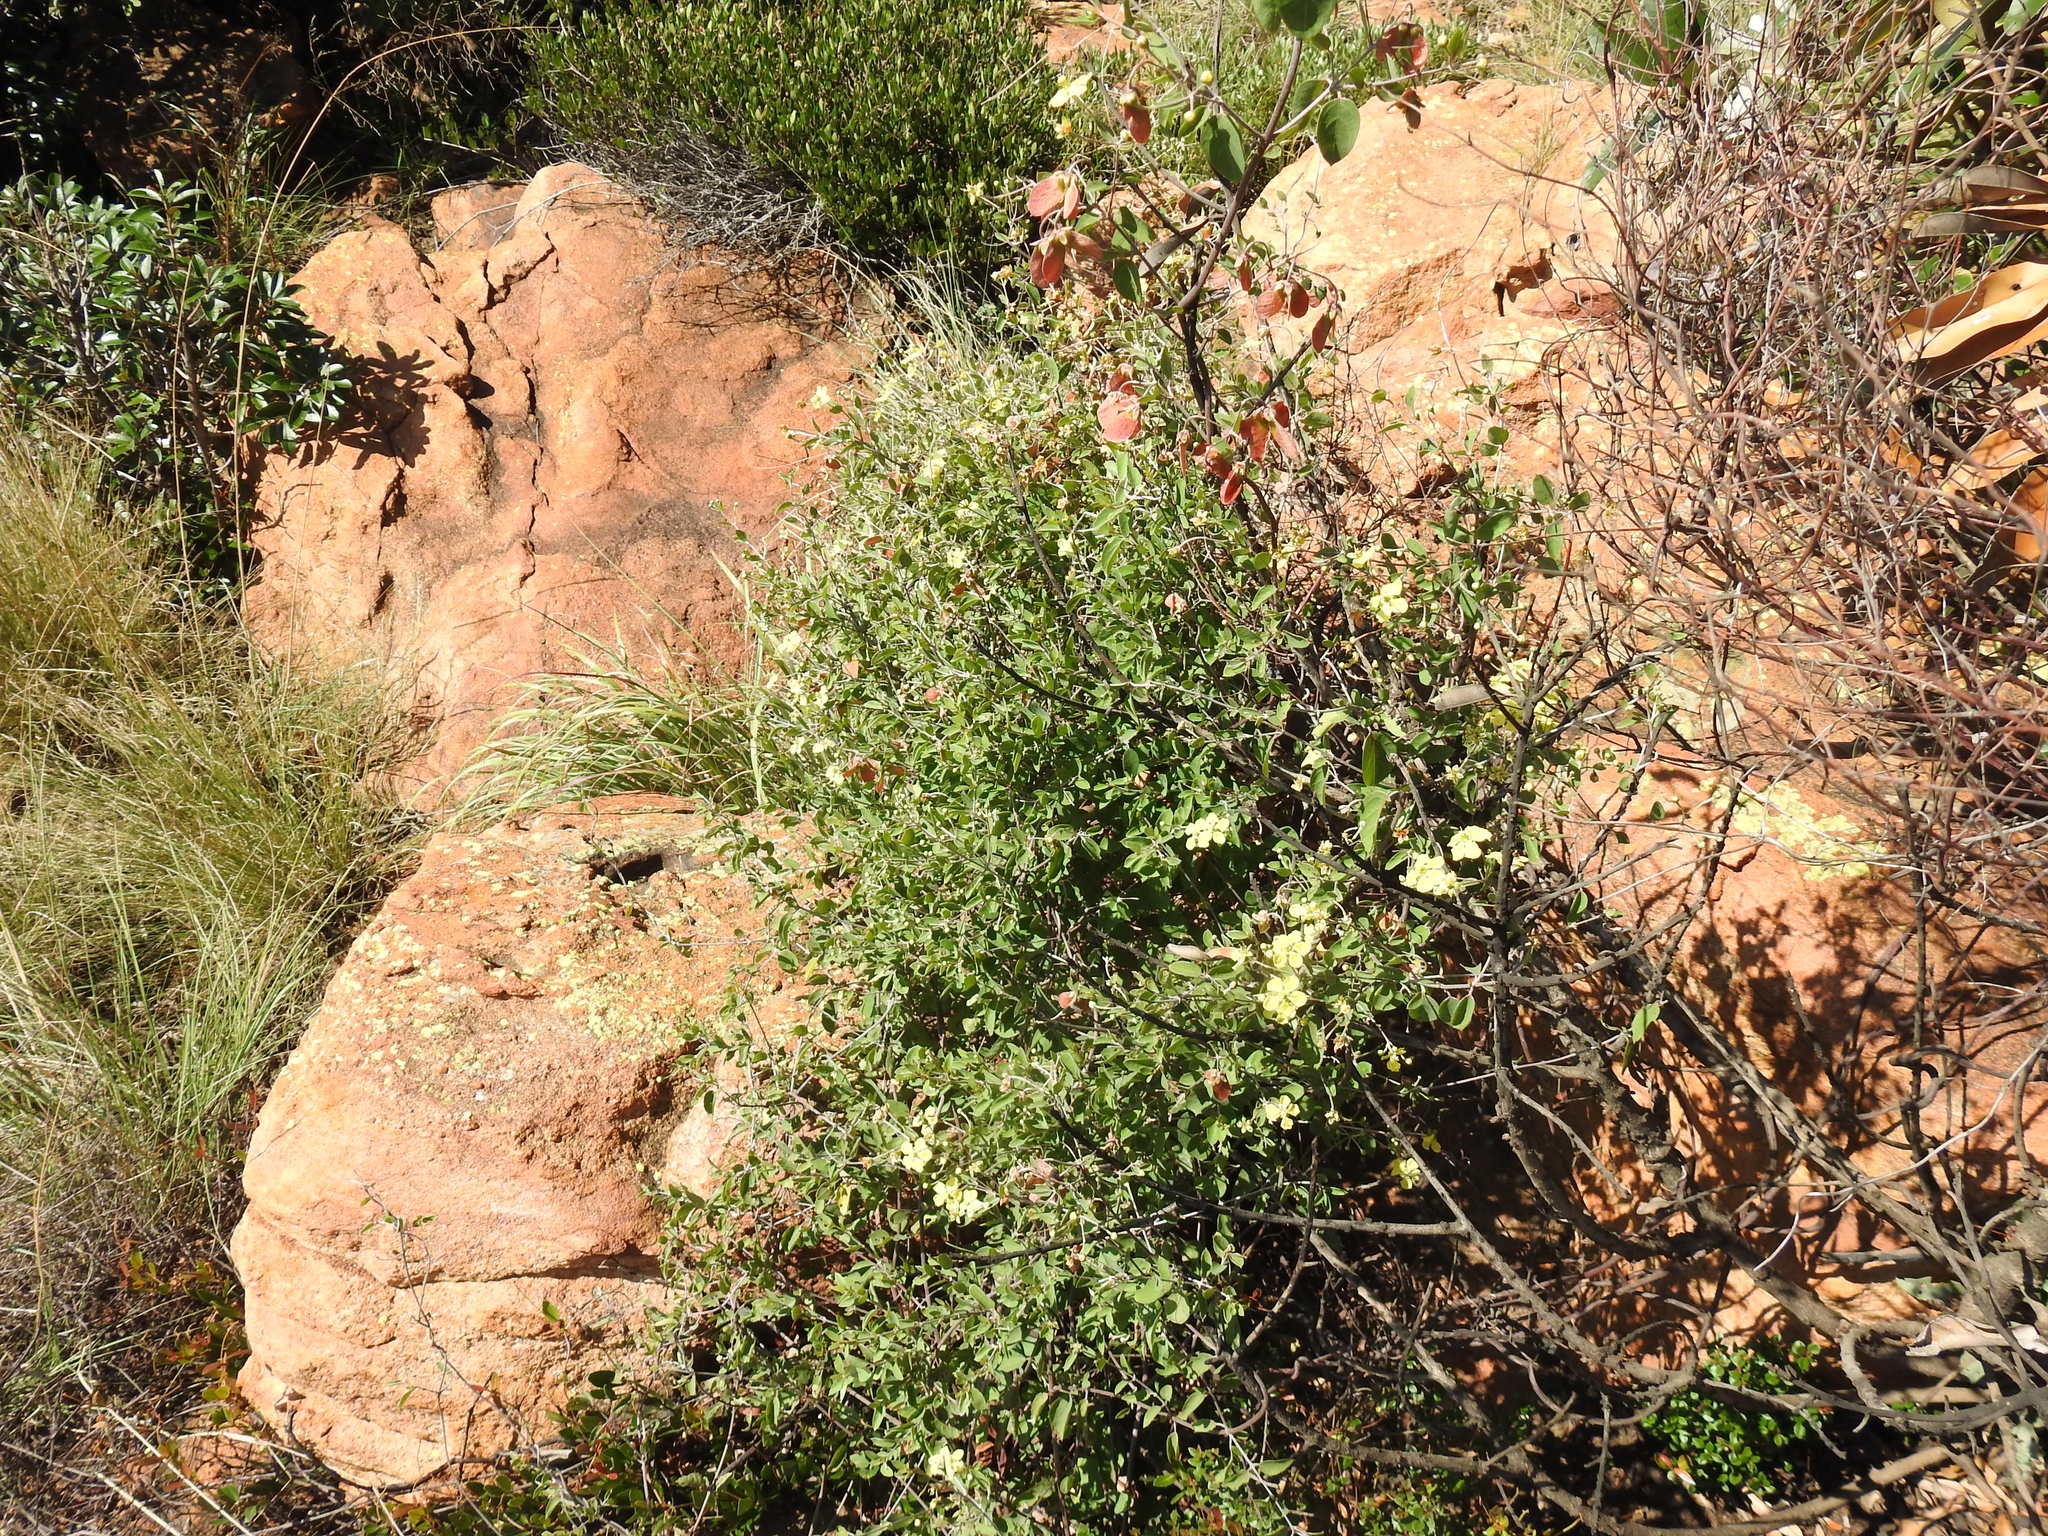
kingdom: Plantae
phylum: Tracheophyta
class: Magnoliopsida
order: Malpighiales
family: Malpighiaceae
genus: Sphedamnocarpus
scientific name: Sphedamnocarpus pruriens
